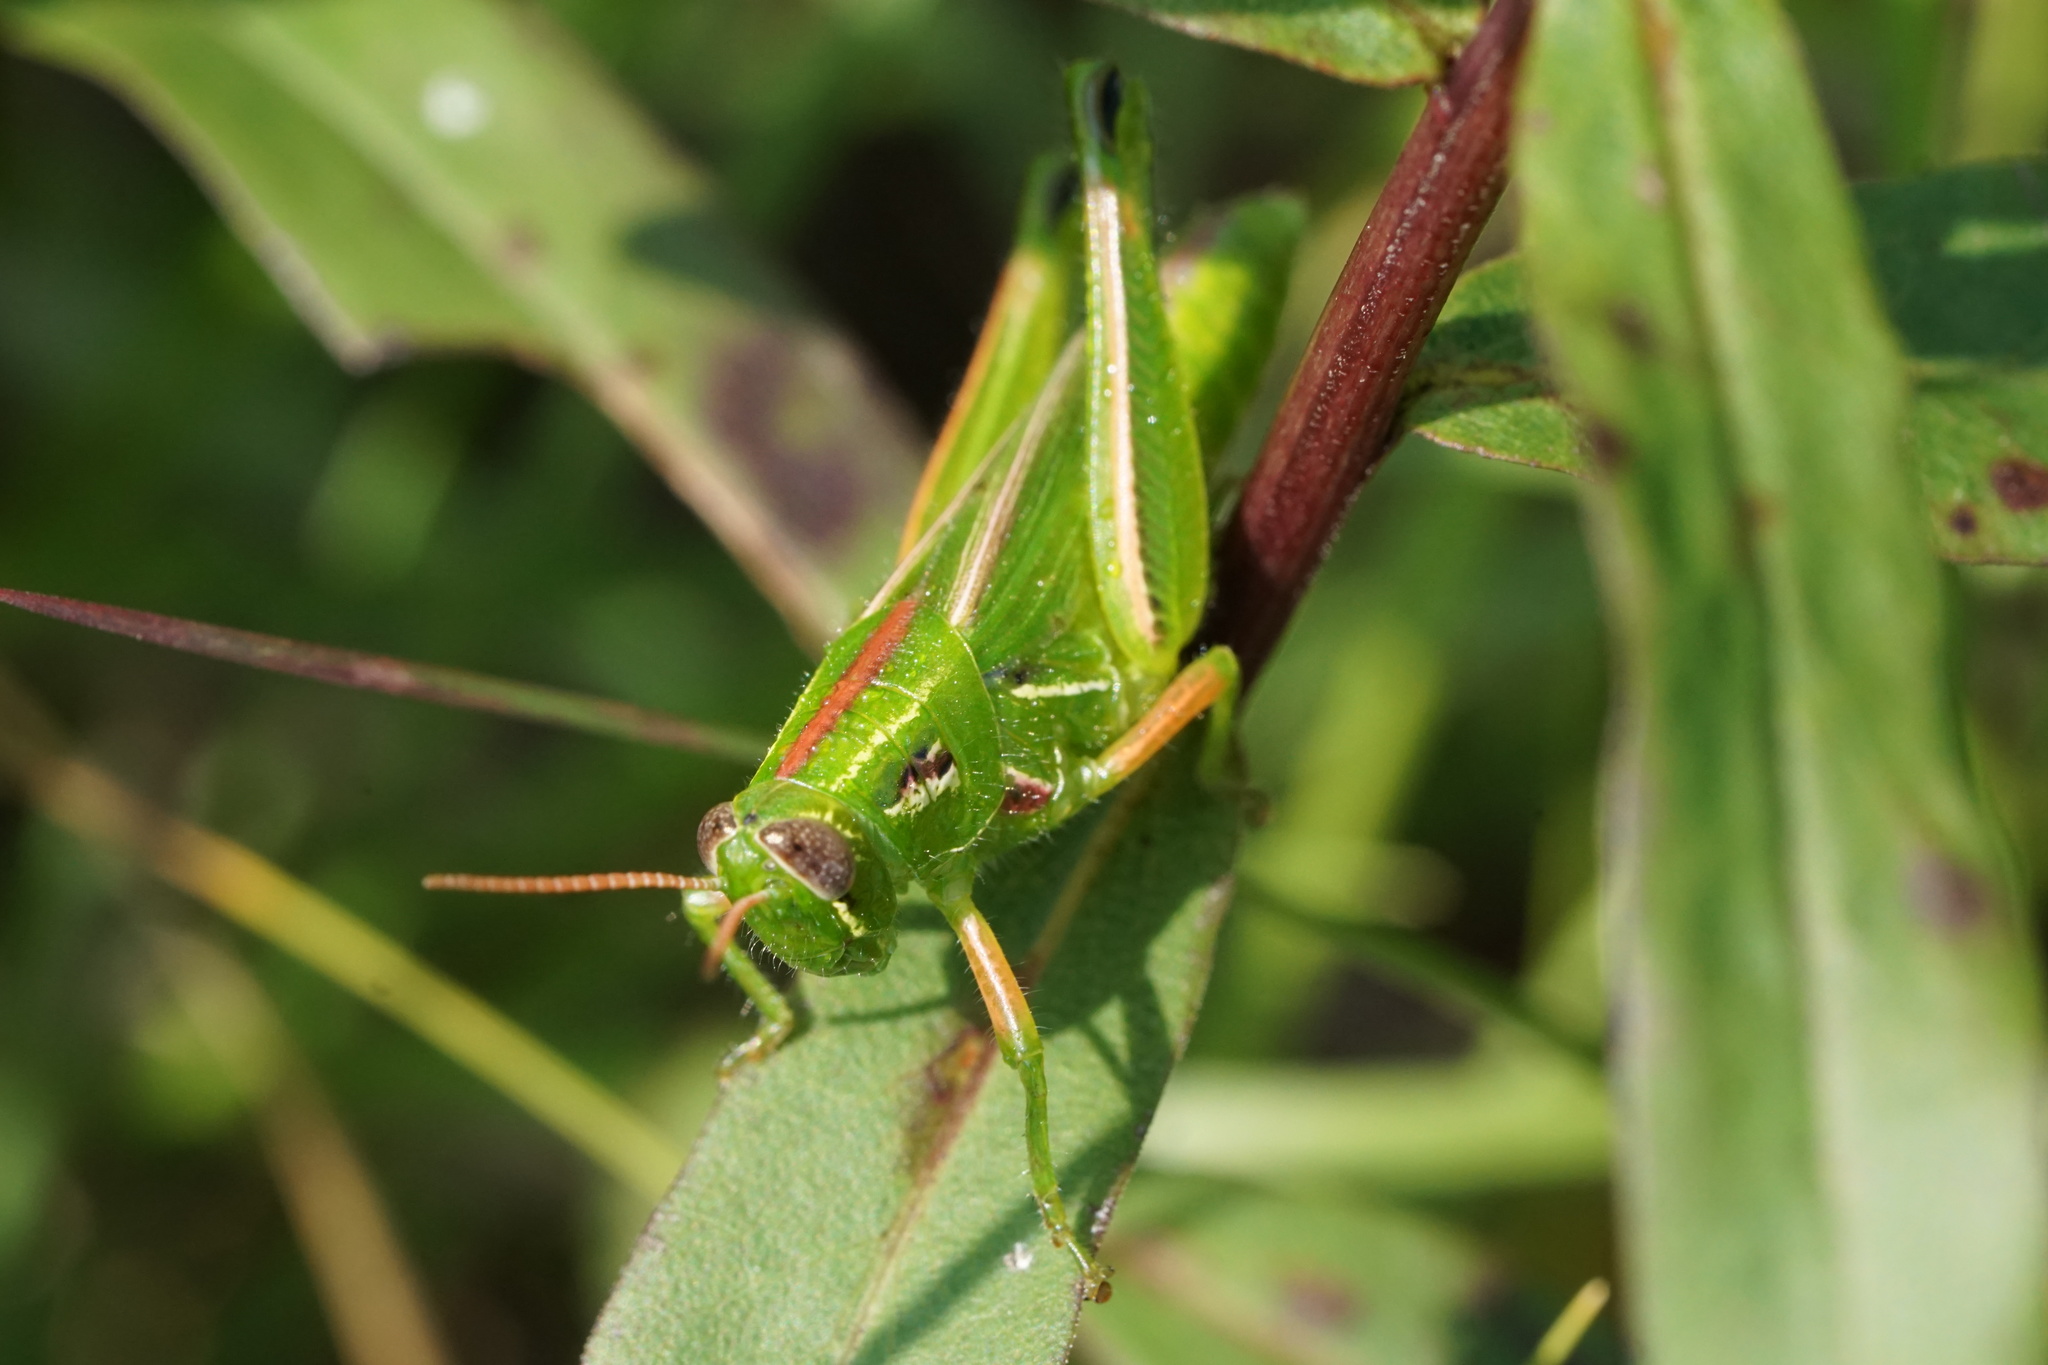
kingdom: Animalia
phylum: Arthropoda
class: Insecta
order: Orthoptera
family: Acrididae
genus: Hesperotettix
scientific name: Hesperotettix viridis
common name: Meadow purple-striped grasshopper
